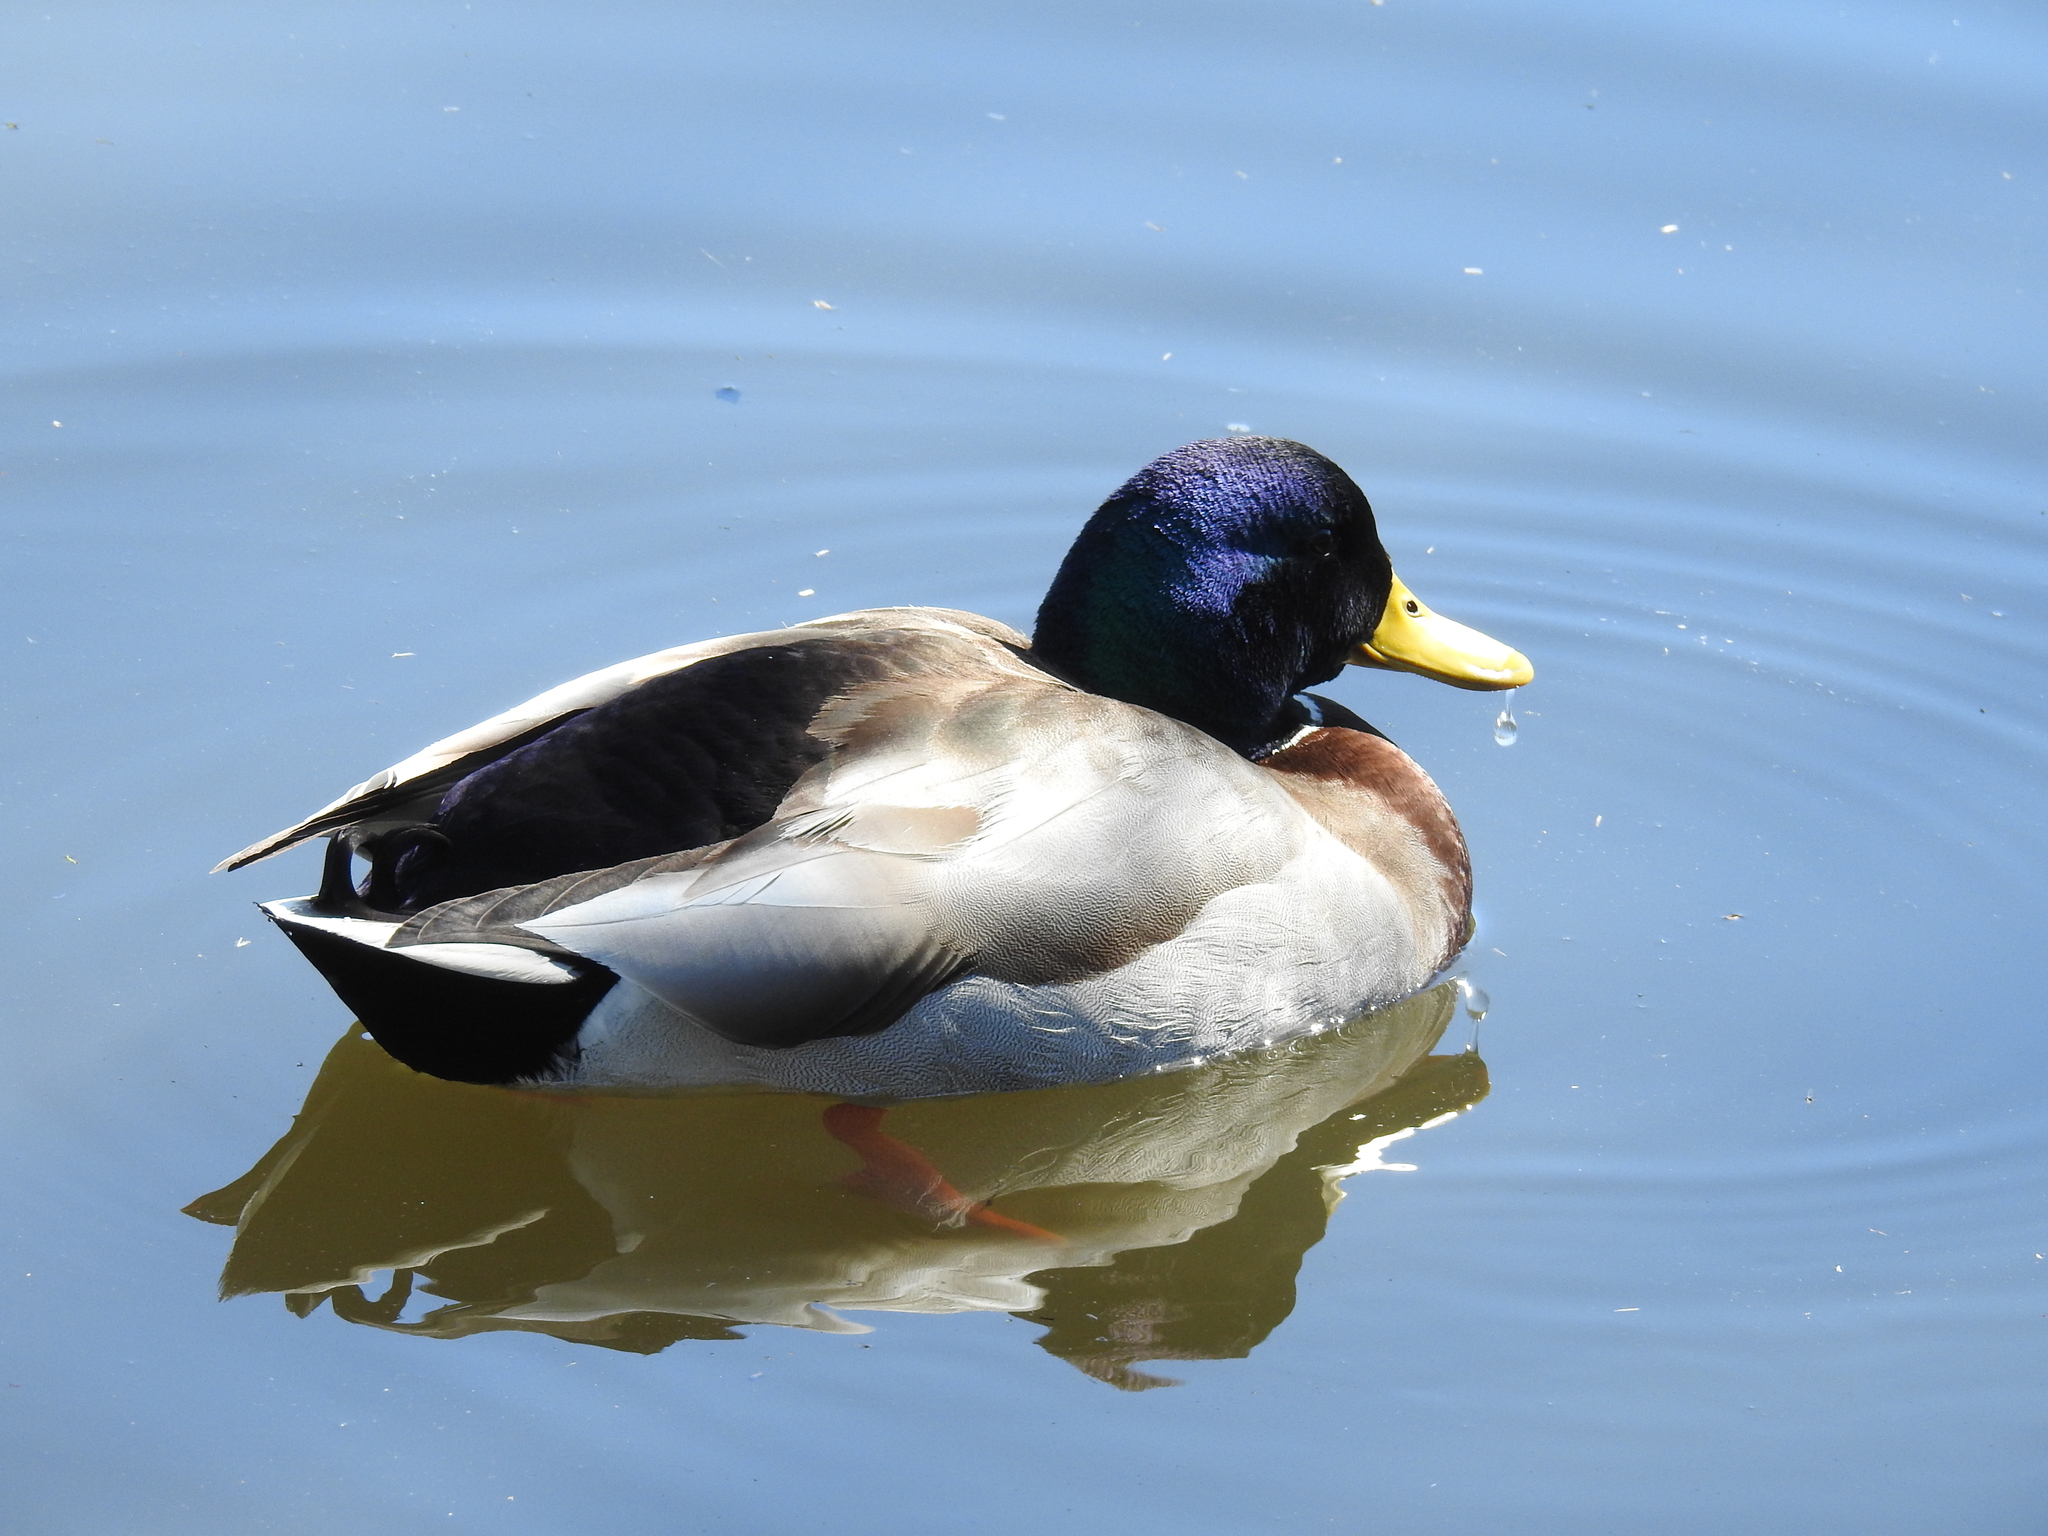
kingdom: Animalia
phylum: Chordata
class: Aves
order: Anseriformes
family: Anatidae
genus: Anas
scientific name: Anas platyrhynchos
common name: Mallard
